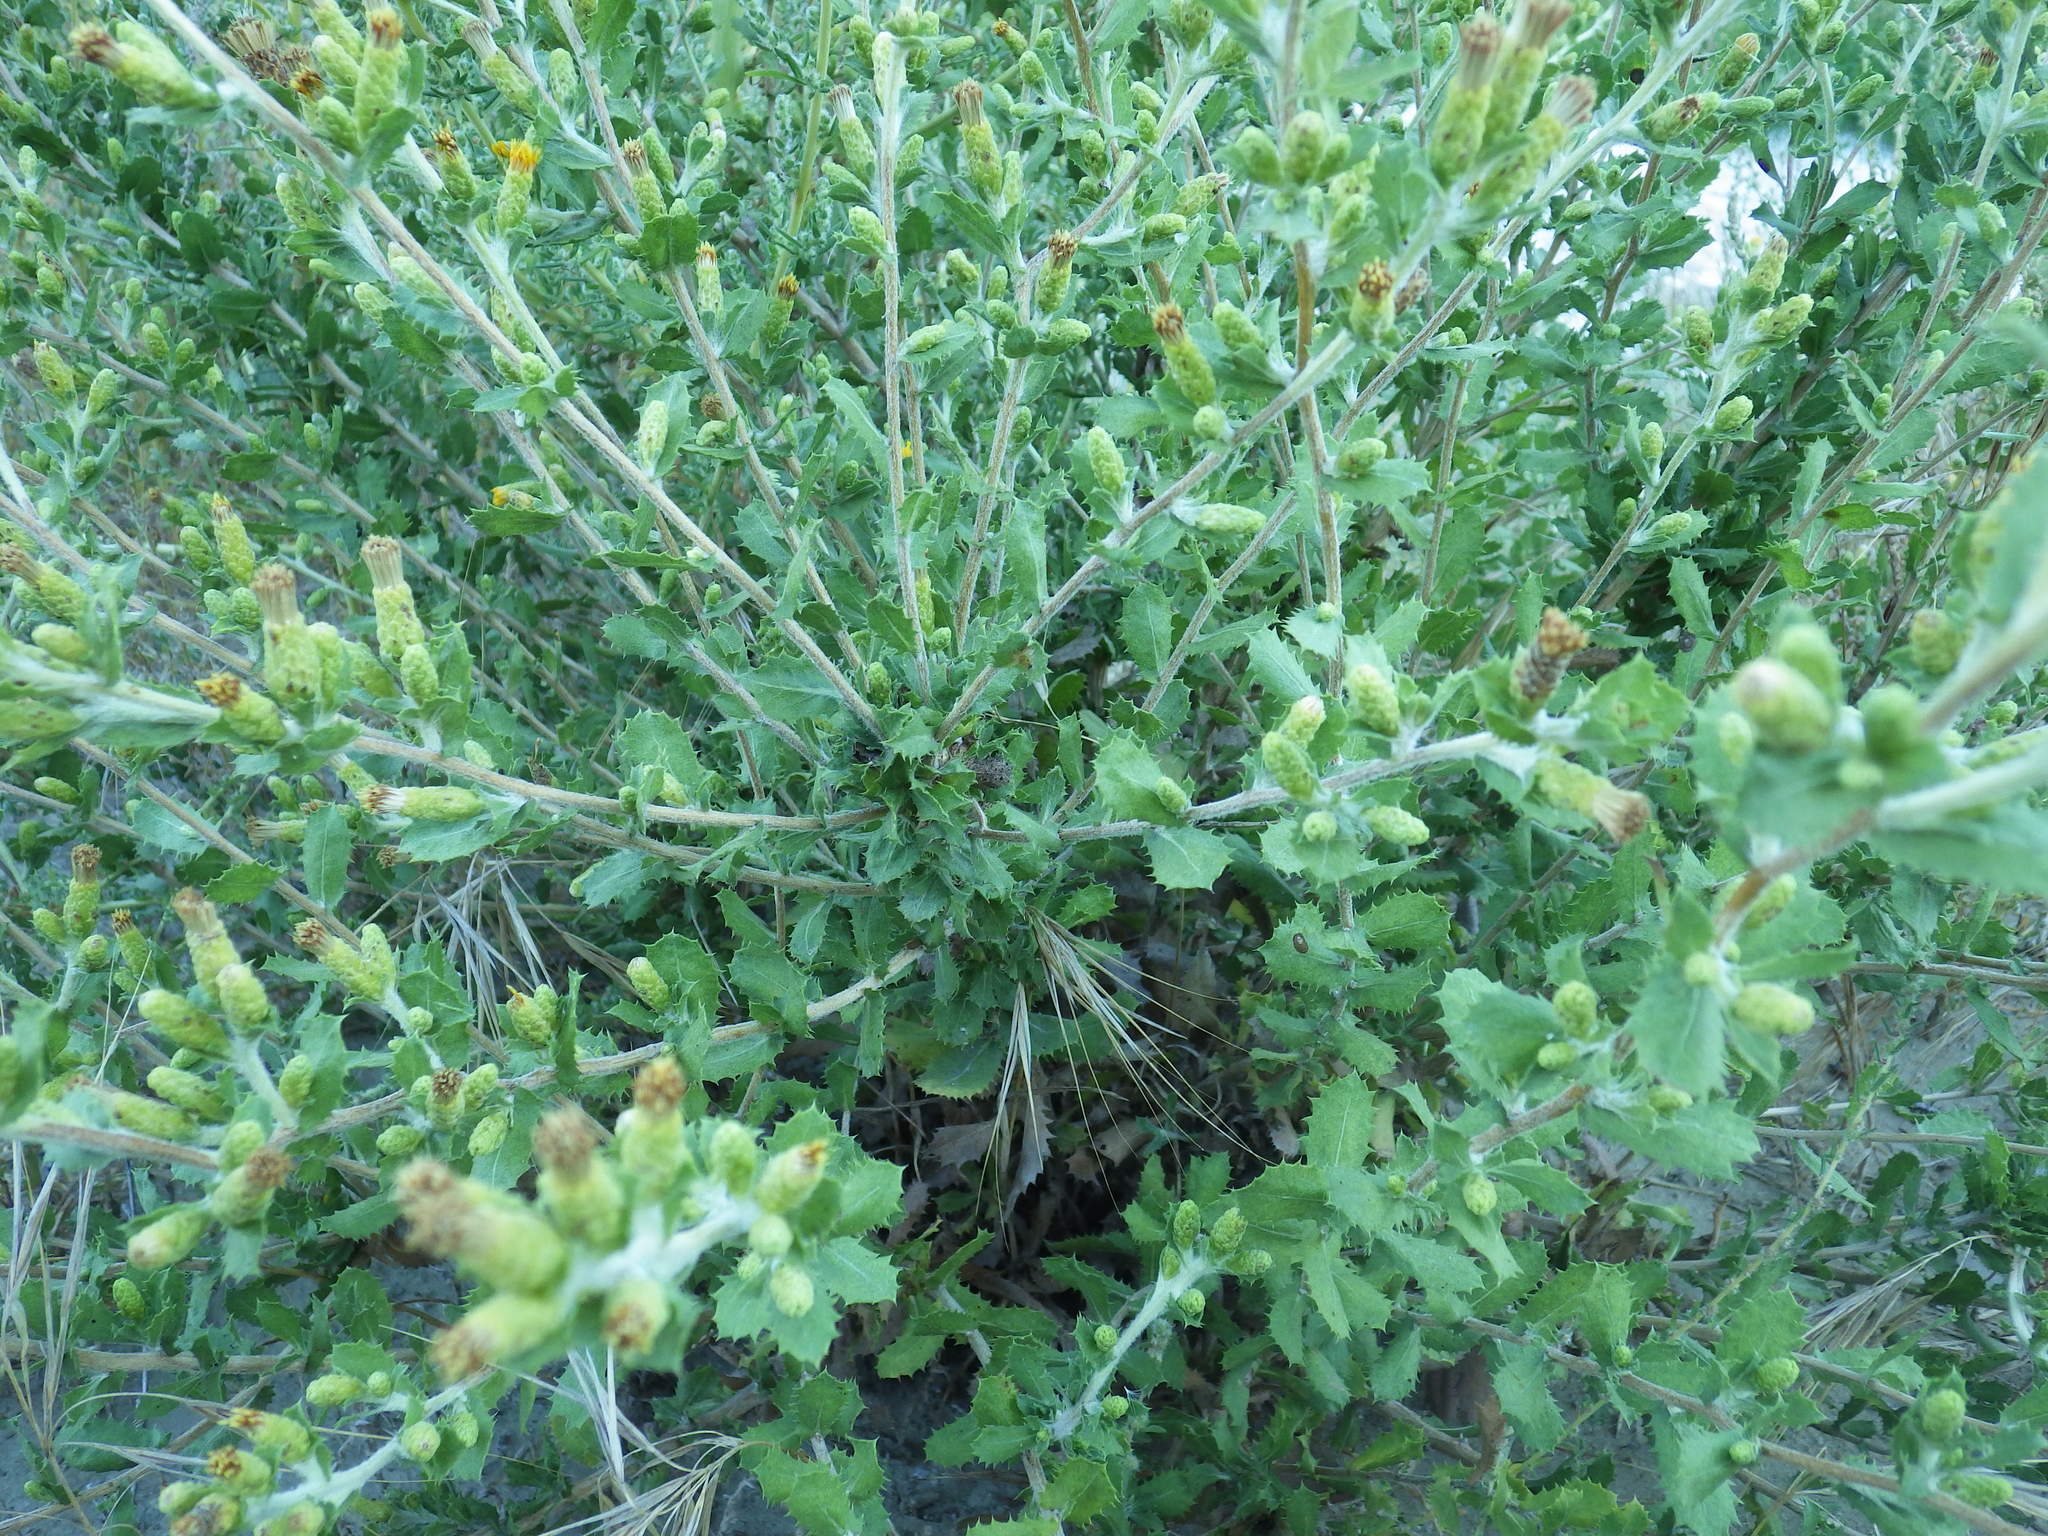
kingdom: Plantae
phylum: Tracheophyta
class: Magnoliopsida
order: Asterales
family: Asteraceae
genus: Hazardia
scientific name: Hazardia squarrosa
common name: Saw-tooth goldenbush
